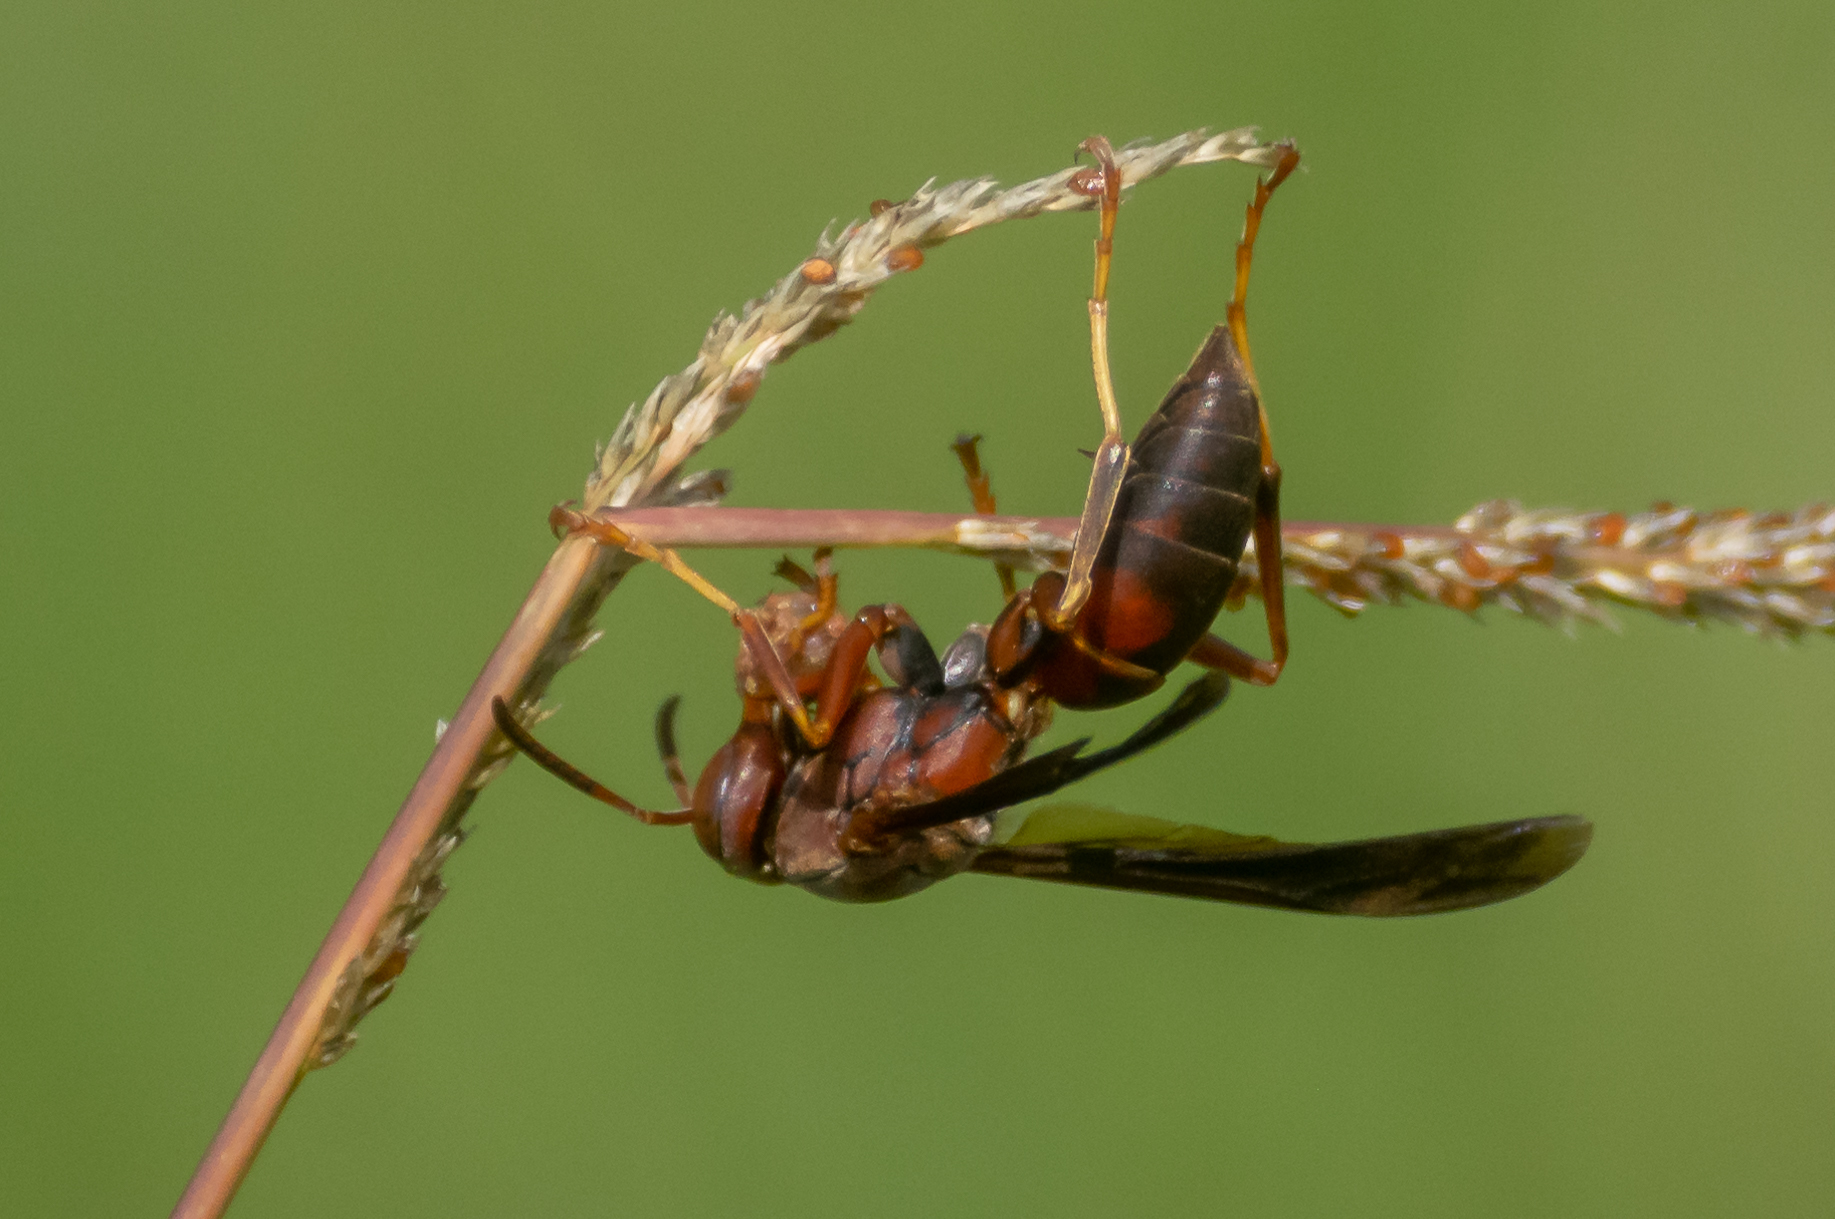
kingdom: Animalia
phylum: Arthropoda
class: Insecta
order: Hymenoptera
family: Eumenidae
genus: Polistes
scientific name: Polistes metricus
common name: Metric paper wasp
